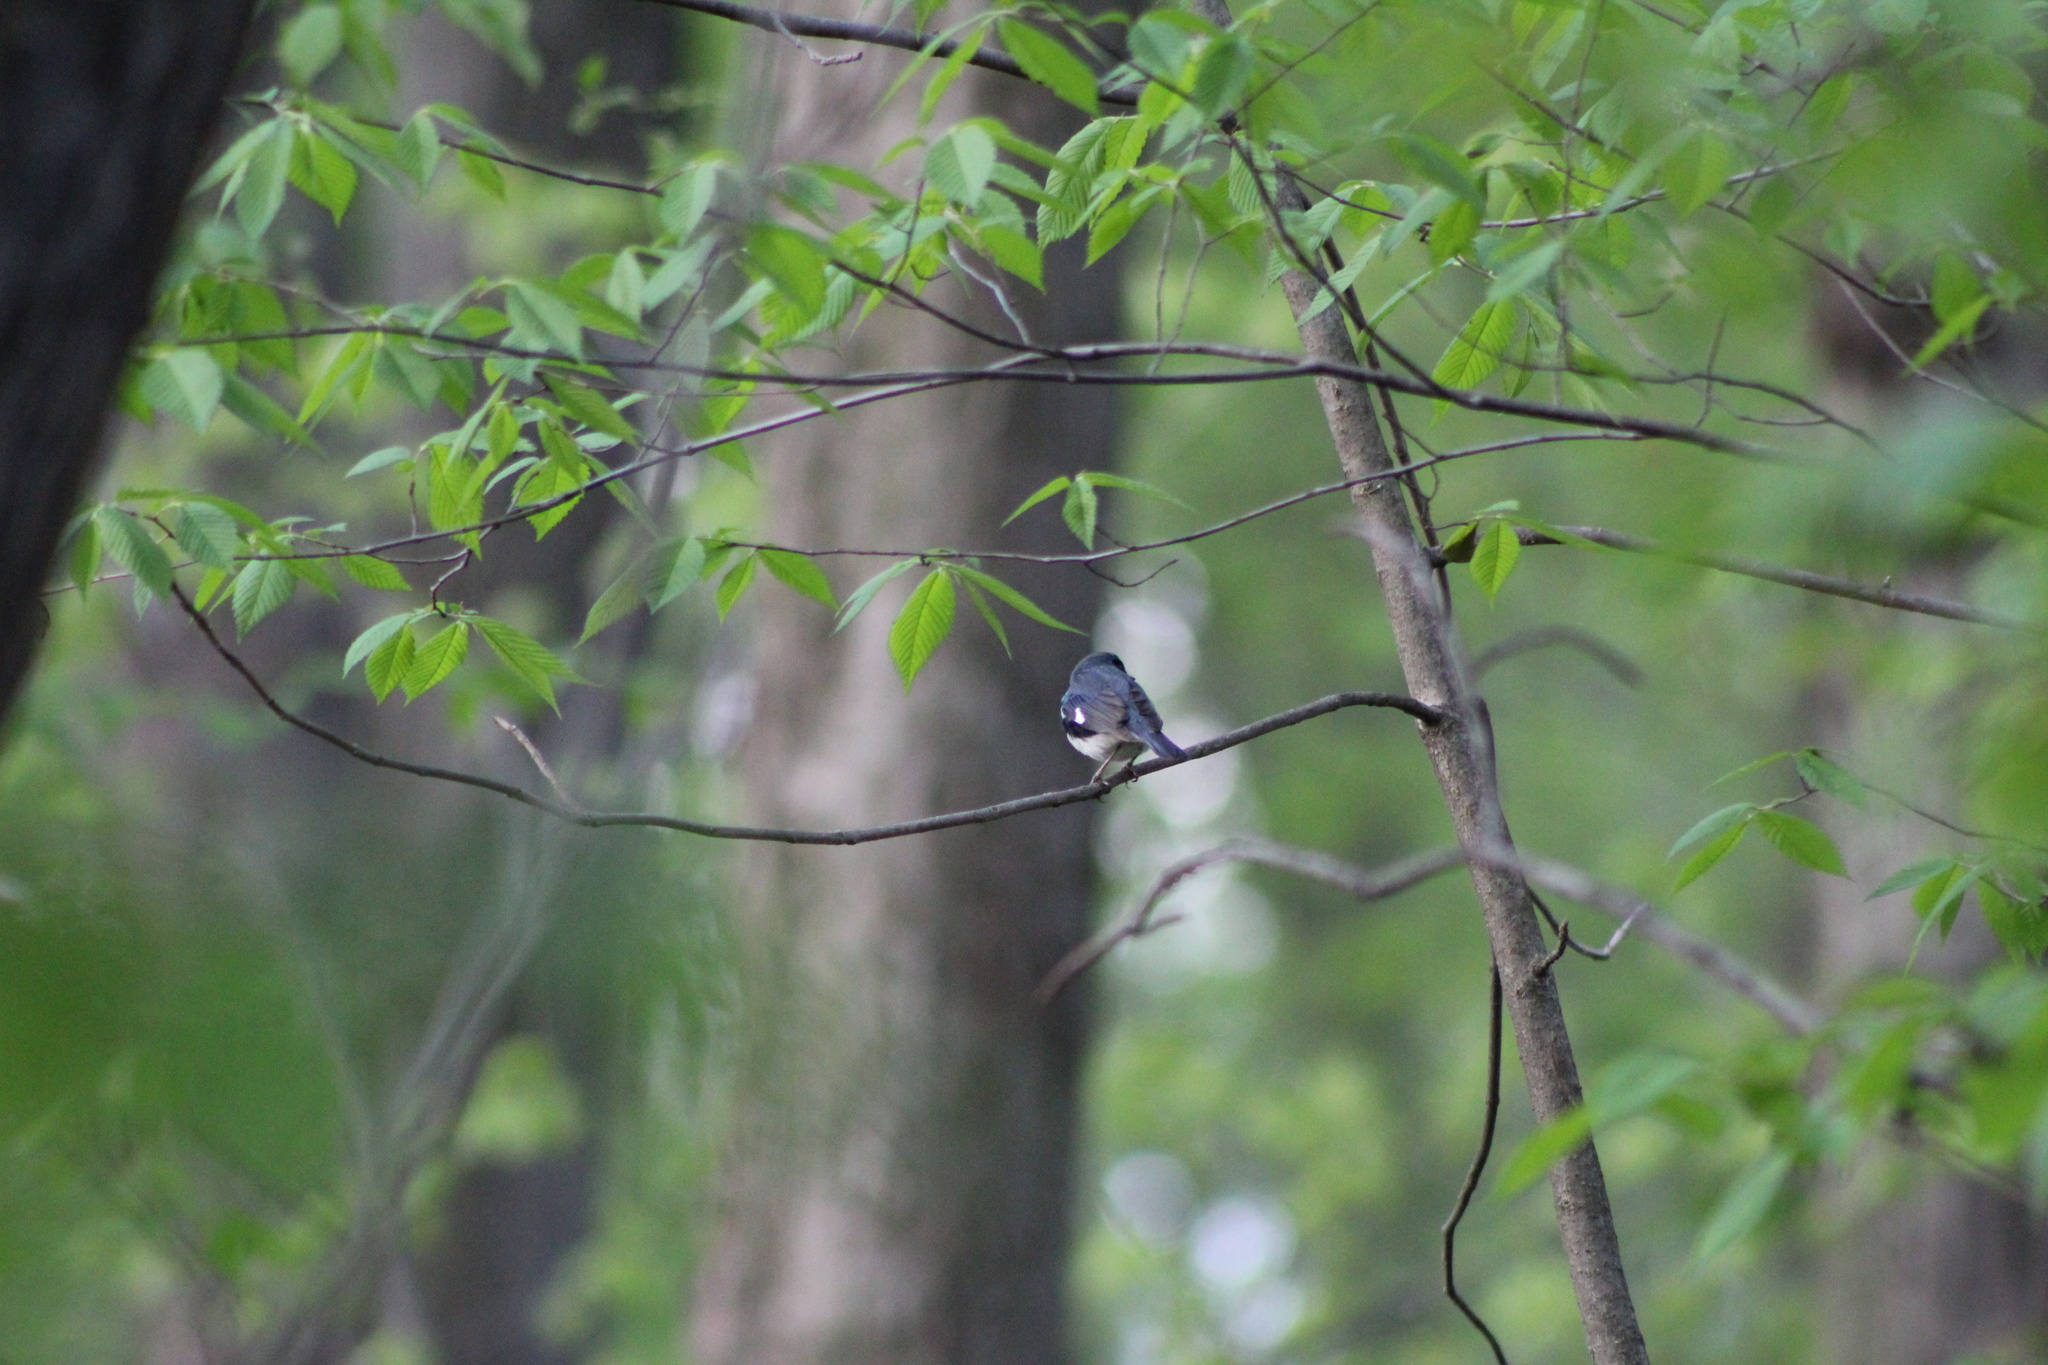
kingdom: Animalia
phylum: Chordata
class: Aves
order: Passeriformes
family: Parulidae
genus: Setophaga
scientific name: Setophaga caerulescens
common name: Black-throated blue warbler
